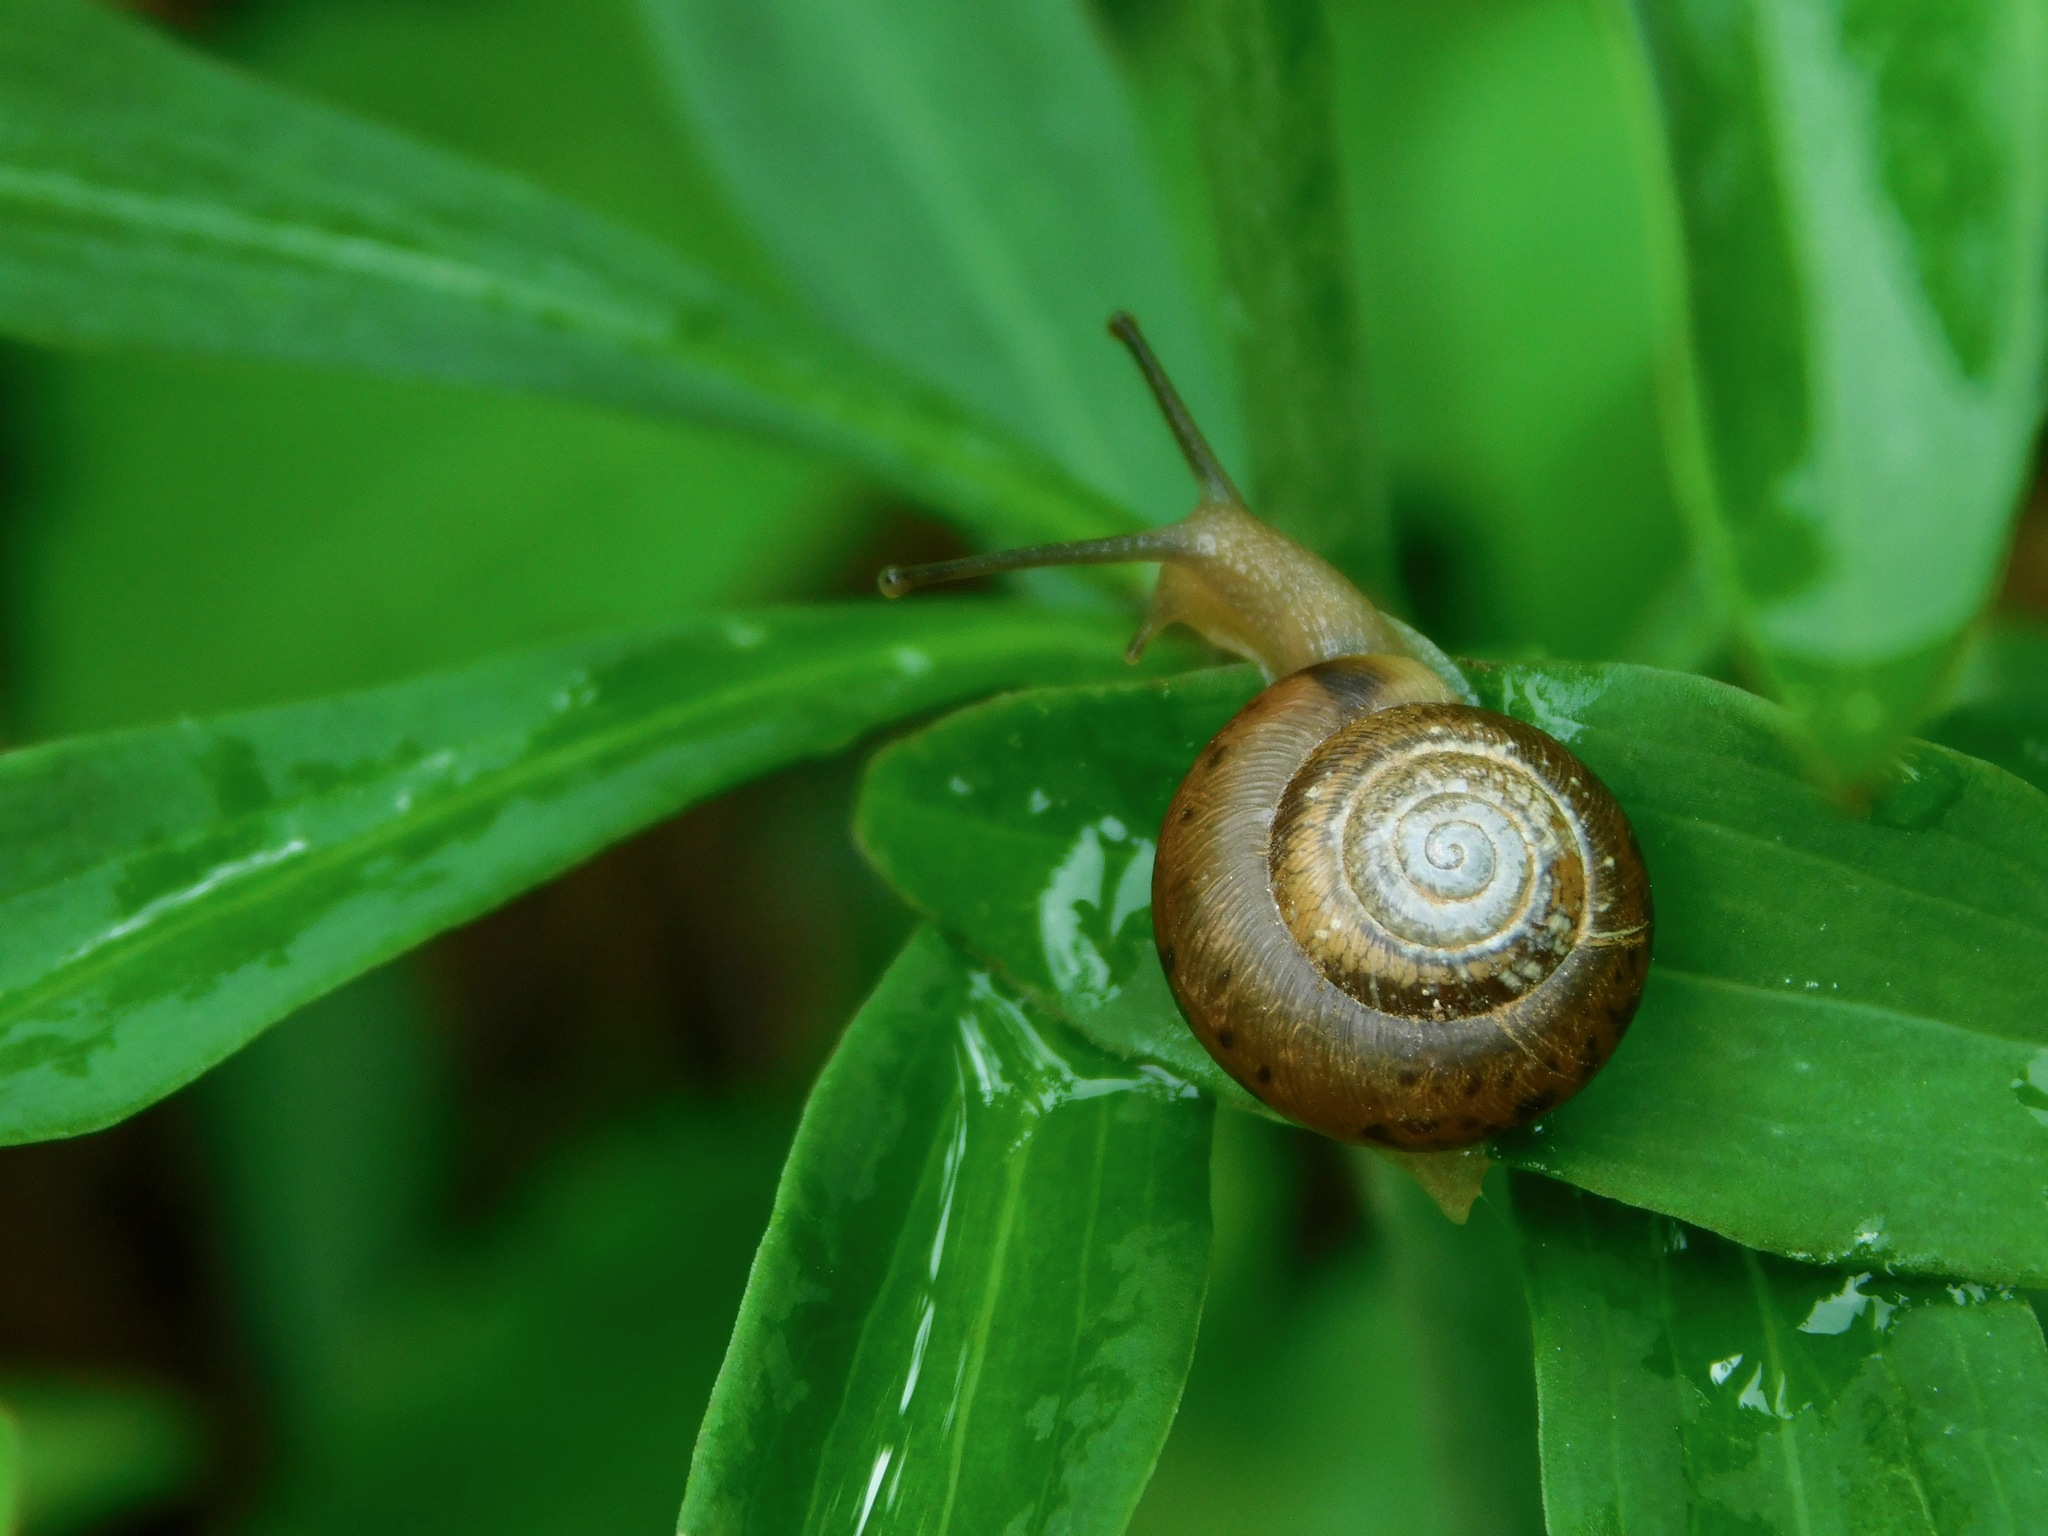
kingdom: Animalia
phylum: Mollusca
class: Gastropoda
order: Stylommatophora
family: Polygyridae
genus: Mesodon
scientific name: Mesodon thyroidus
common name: White-lip globe
